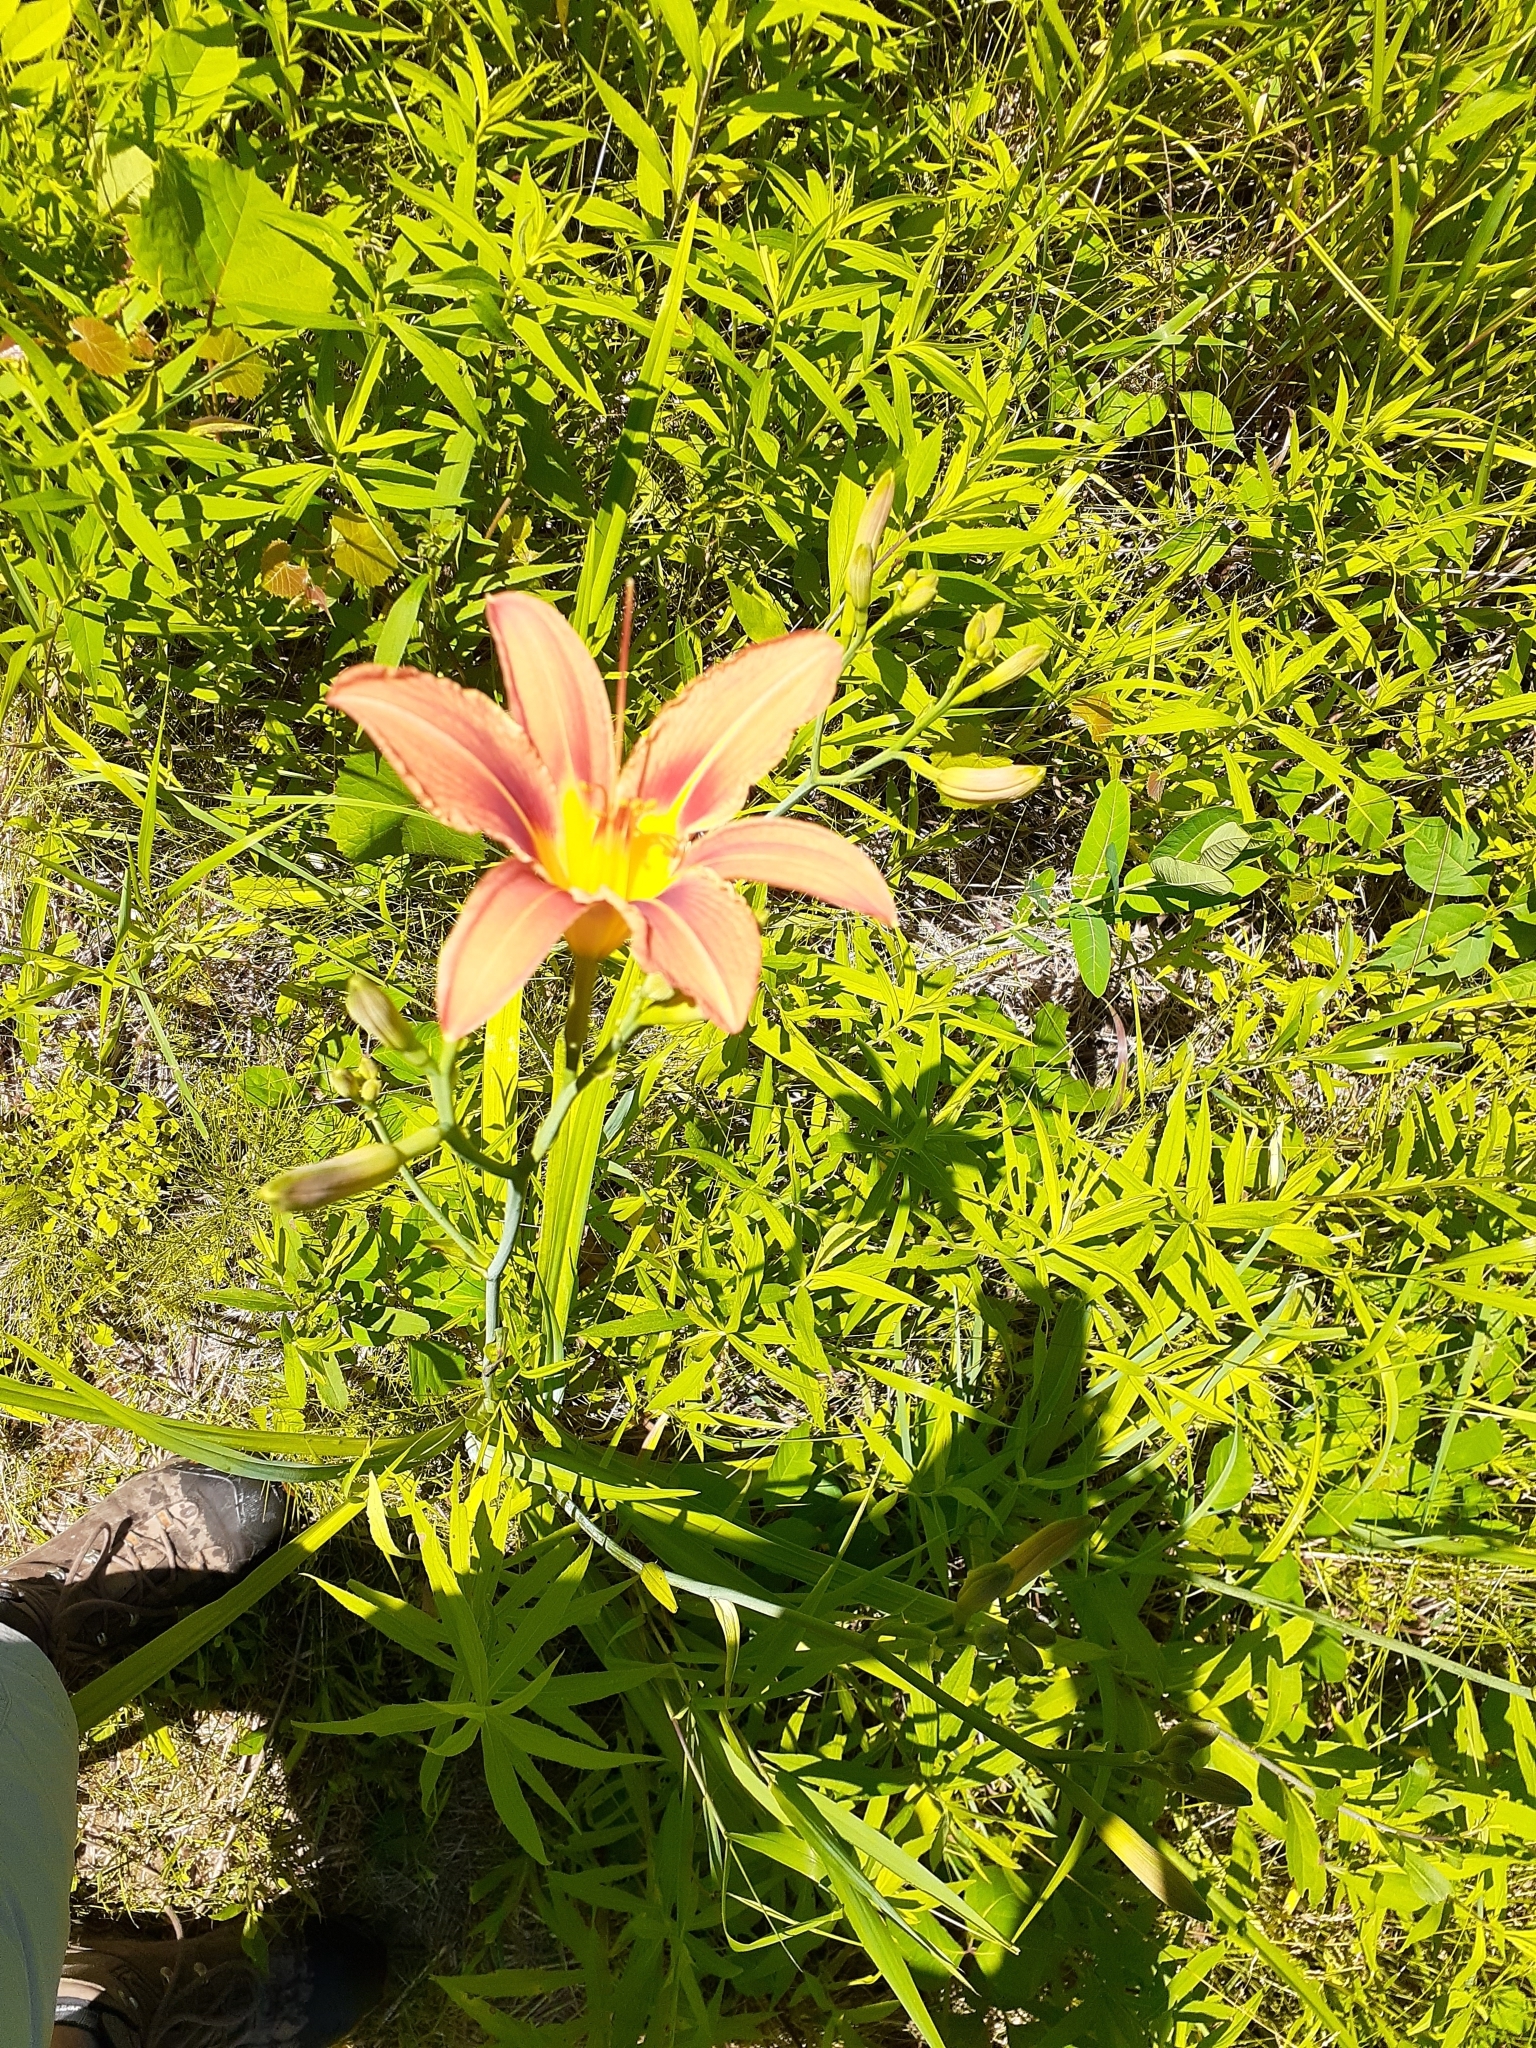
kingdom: Plantae
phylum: Tracheophyta
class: Liliopsida
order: Asparagales
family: Asphodelaceae
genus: Hemerocallis
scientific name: Hemerocallis fulva
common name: Orange day-lily
